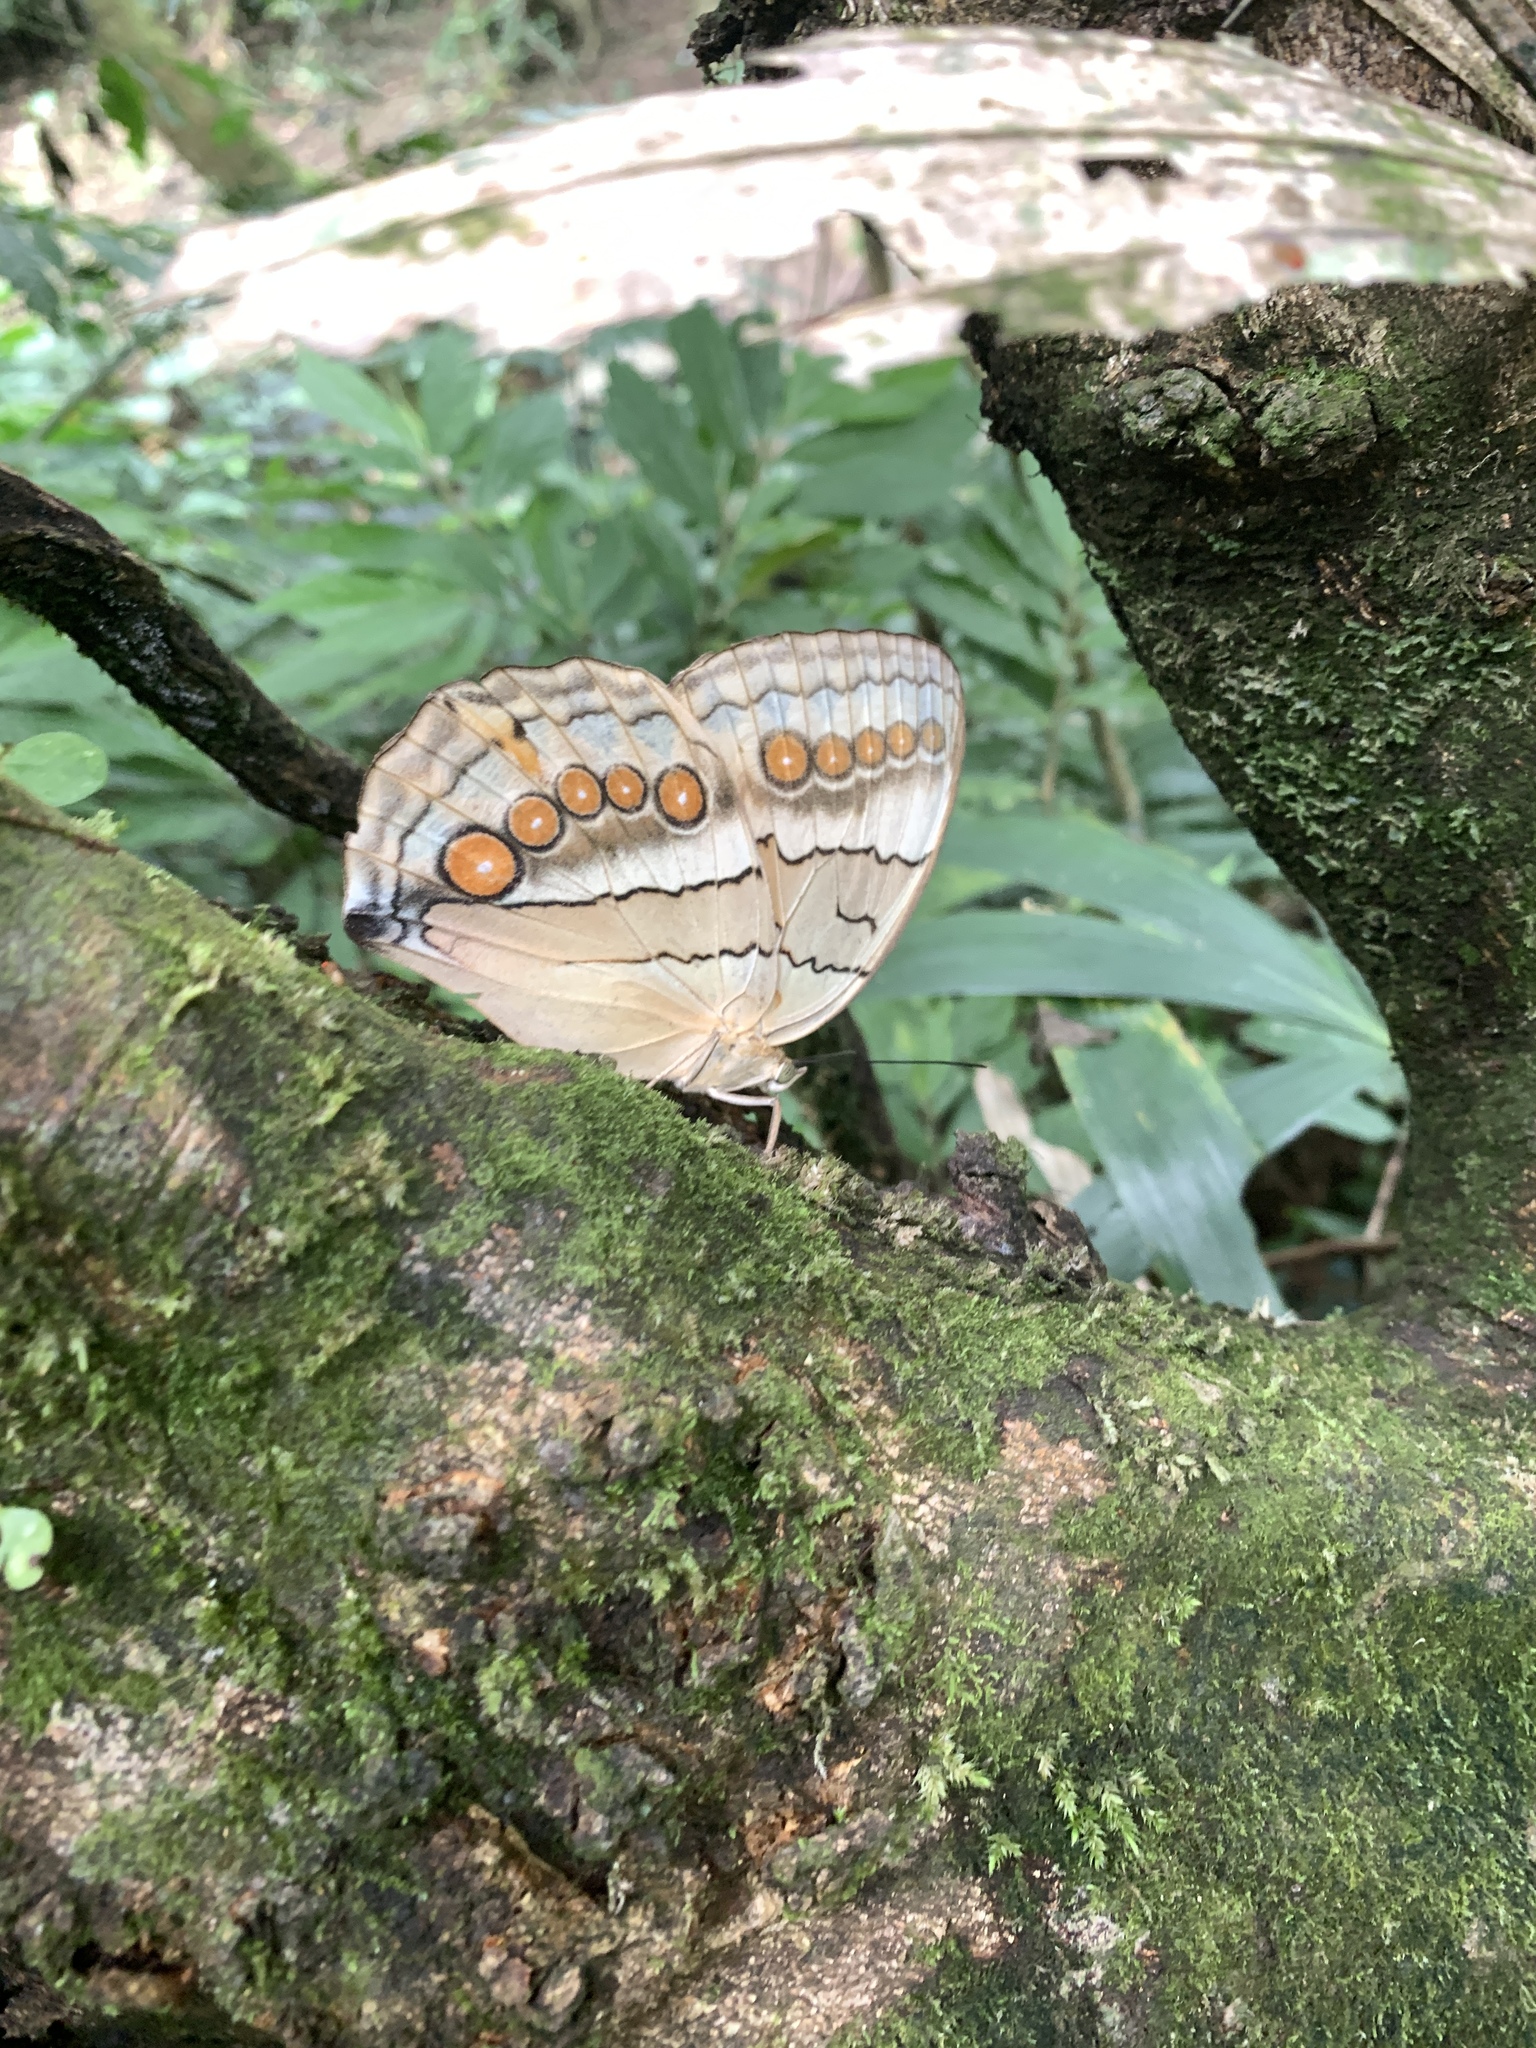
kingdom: Animalia
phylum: Arthropoda
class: Insecta
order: Lepidoptera
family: Nymphalidae
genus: Stichophthalma
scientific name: Stichophthalma howqua
